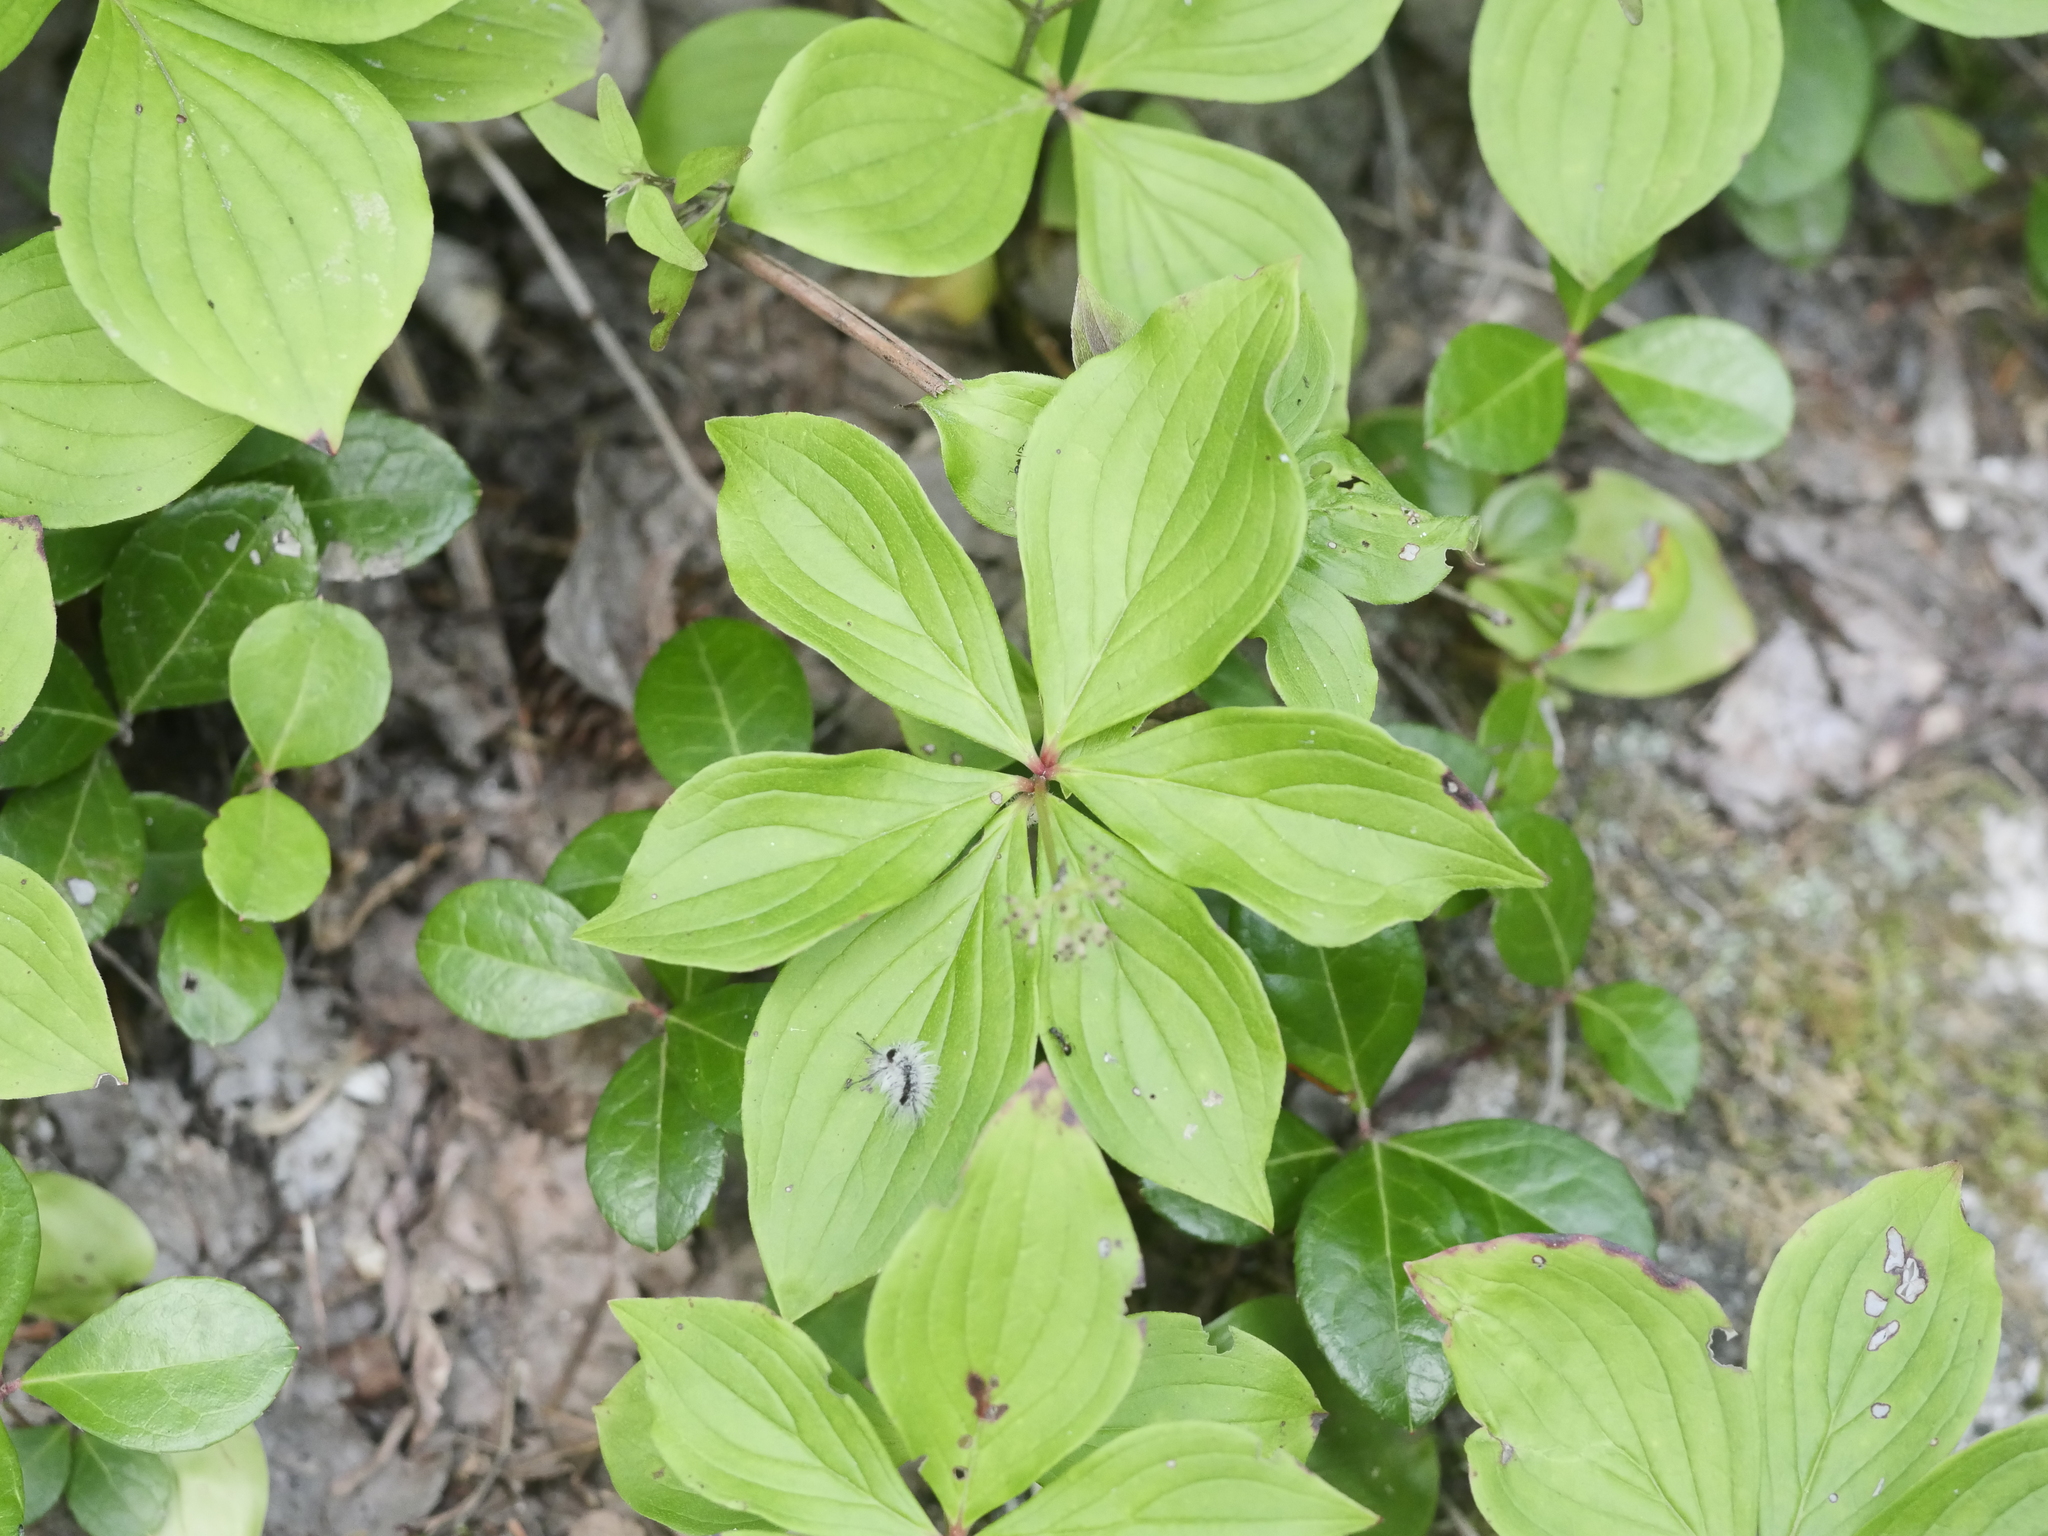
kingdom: Plantae
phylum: Tracheophyta
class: Magnoliopsida
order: Cornales
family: Cornaceae
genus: Cornus
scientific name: Cornus canadensis
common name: Creeping dogwood
